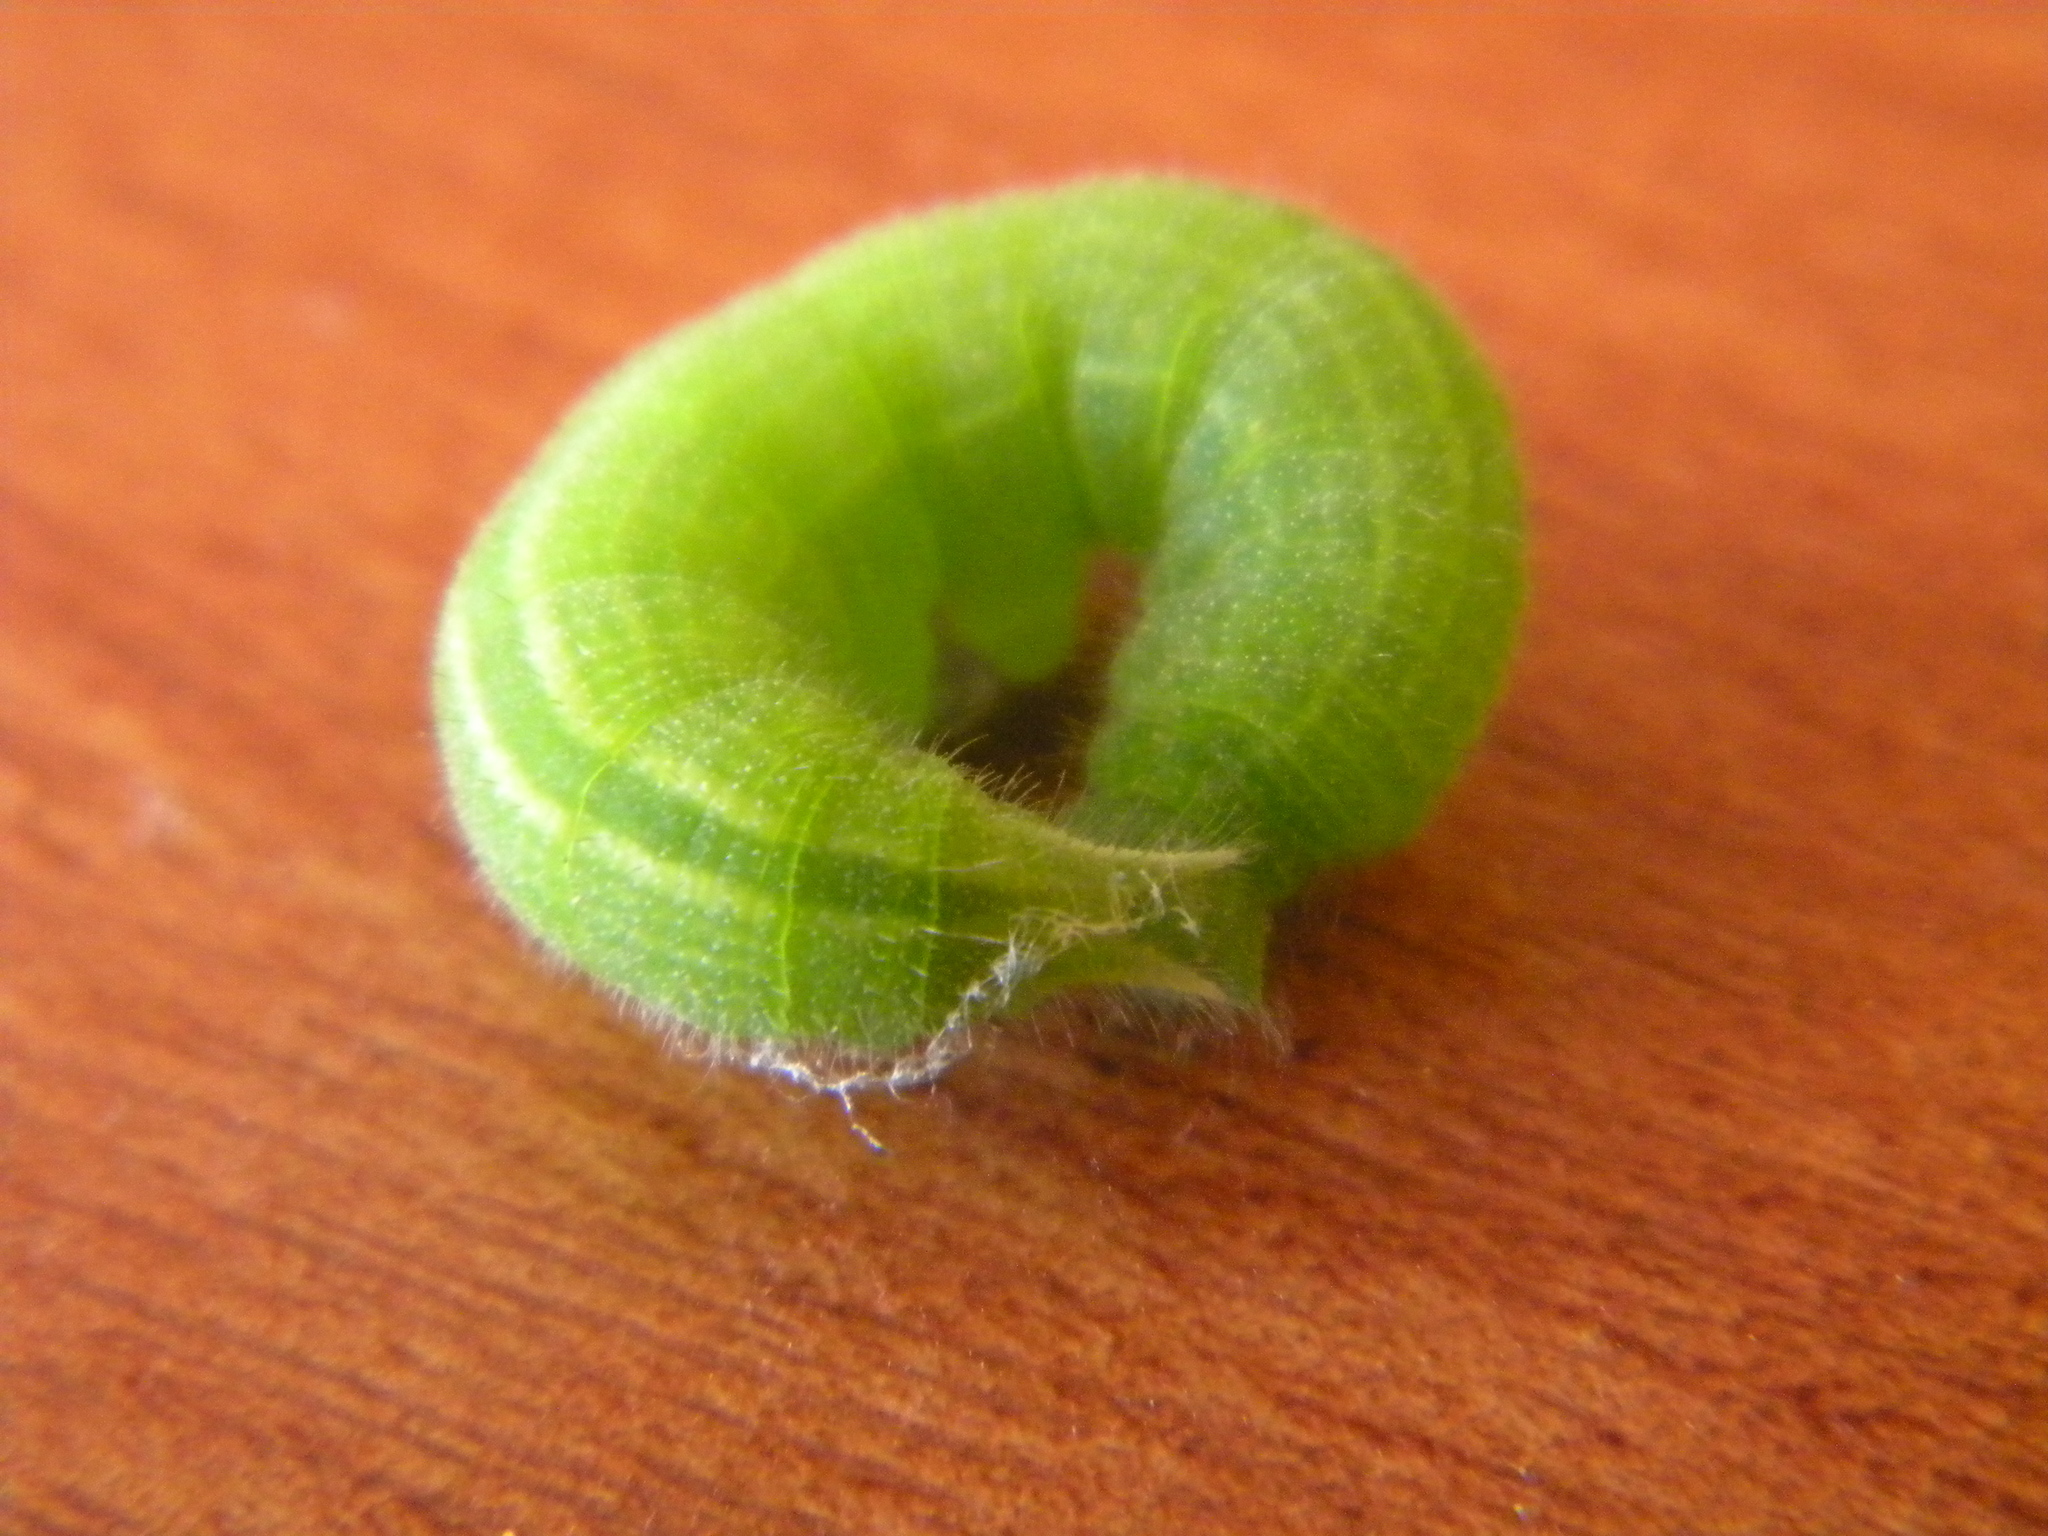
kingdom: Animalia
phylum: Arthropoda
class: Insecta
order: Lepidoptera
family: Nymphalidae
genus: Kirinia
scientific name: Kirinia roxelana
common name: Lattice brown
